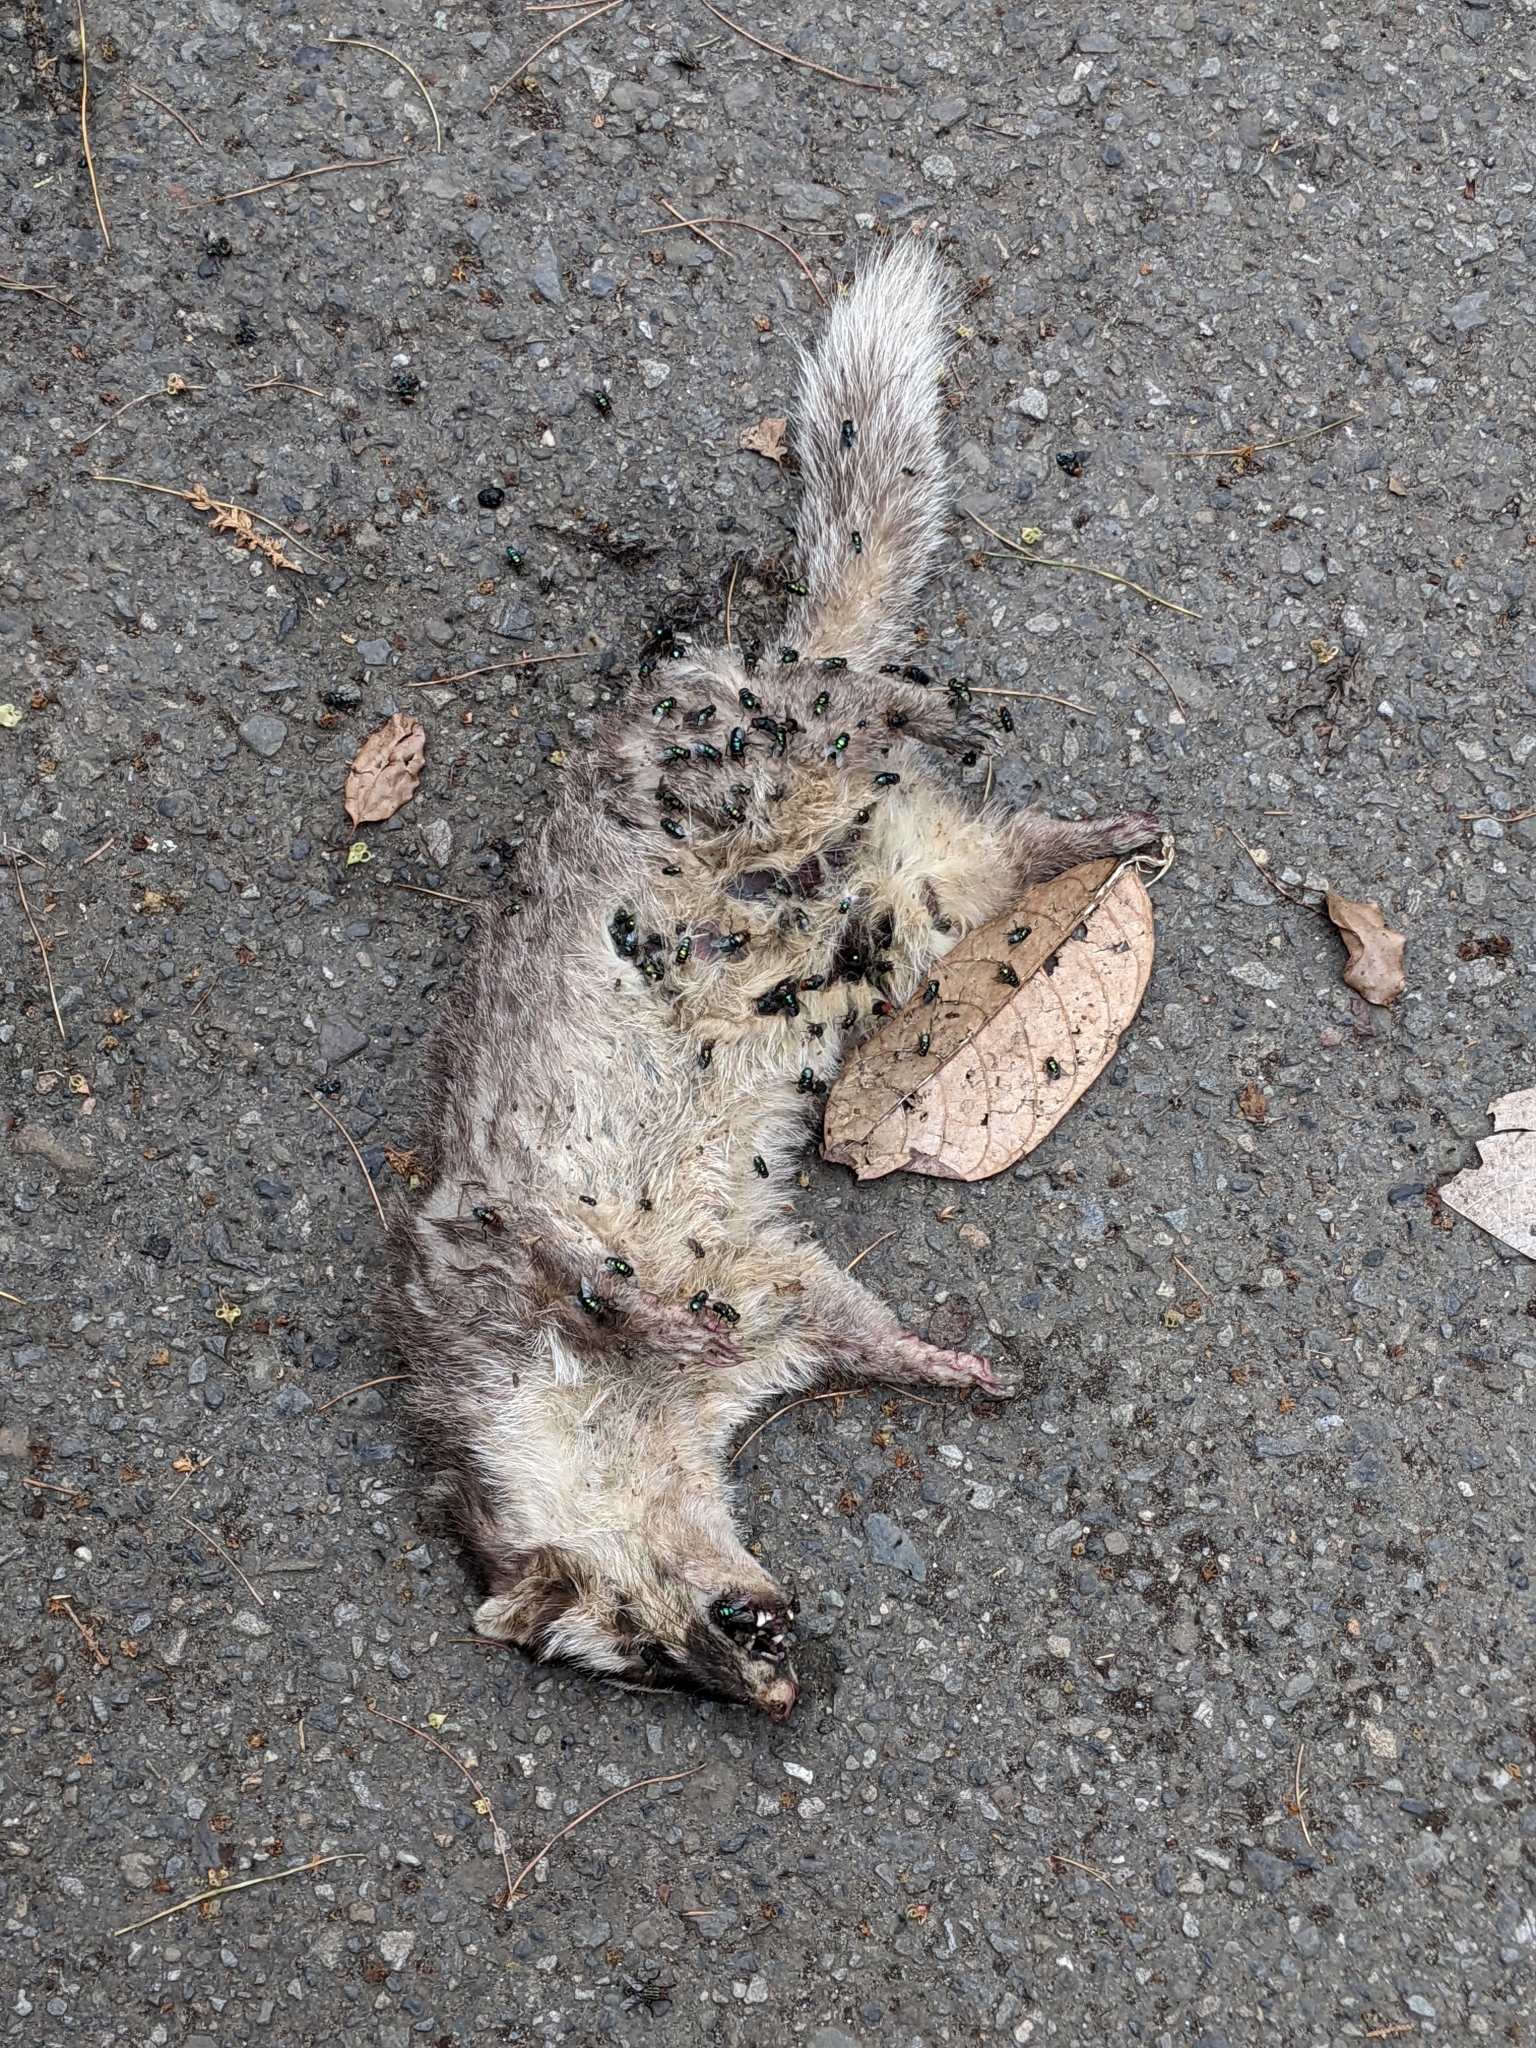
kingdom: Animalia
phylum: Chordata
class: Mammalia
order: Carnivora
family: Mustelidae
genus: Melogale
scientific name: Melogale
